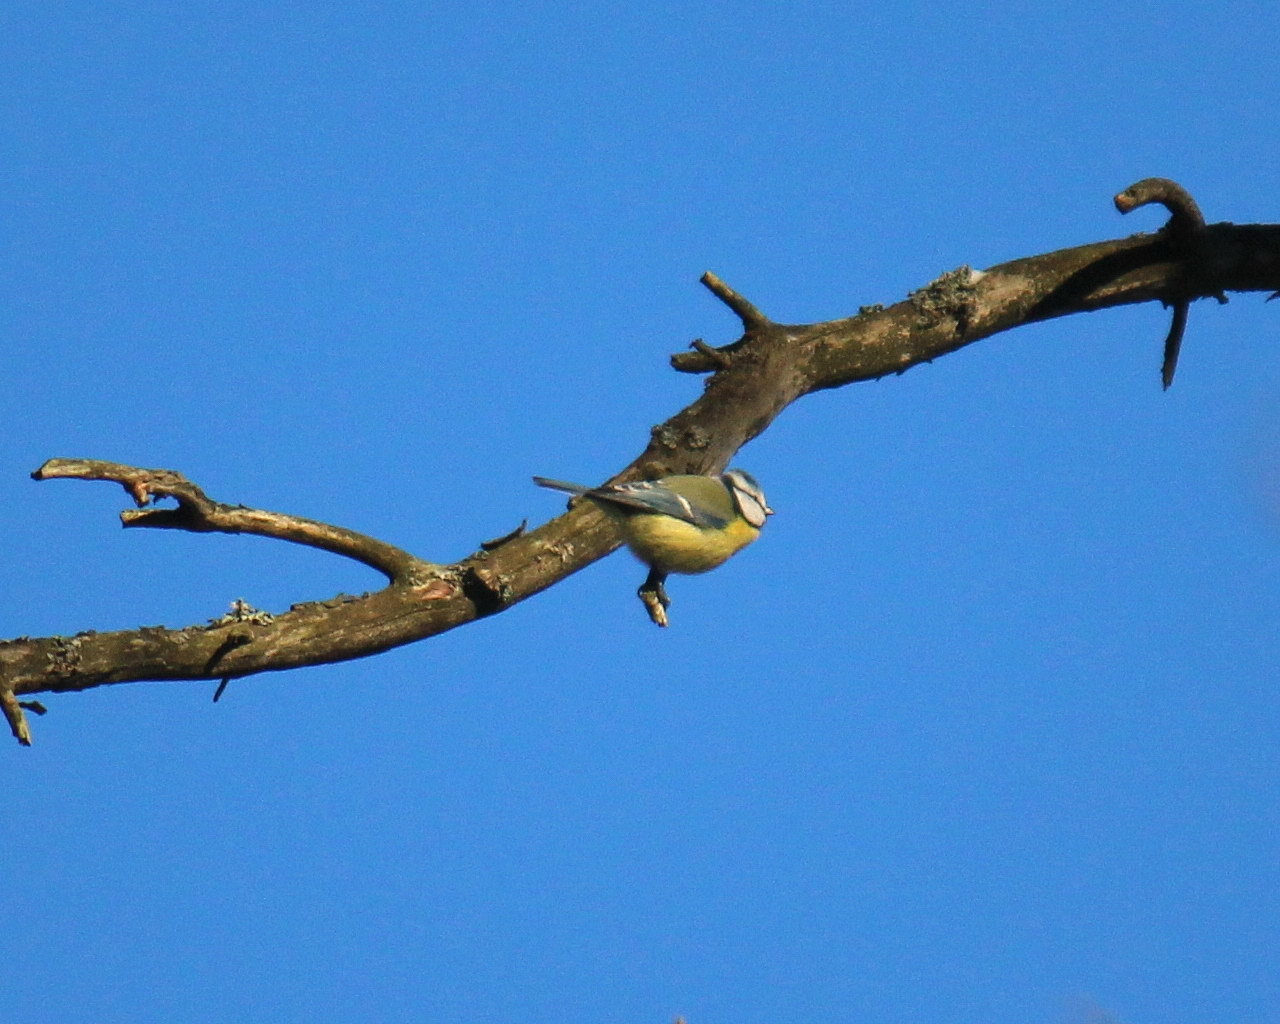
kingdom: Animalia
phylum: Chordata
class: Aves
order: Passeriformes
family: Paridae
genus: Cyanistes
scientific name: Cyanistes caeruleus
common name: Eurasian blue tit
